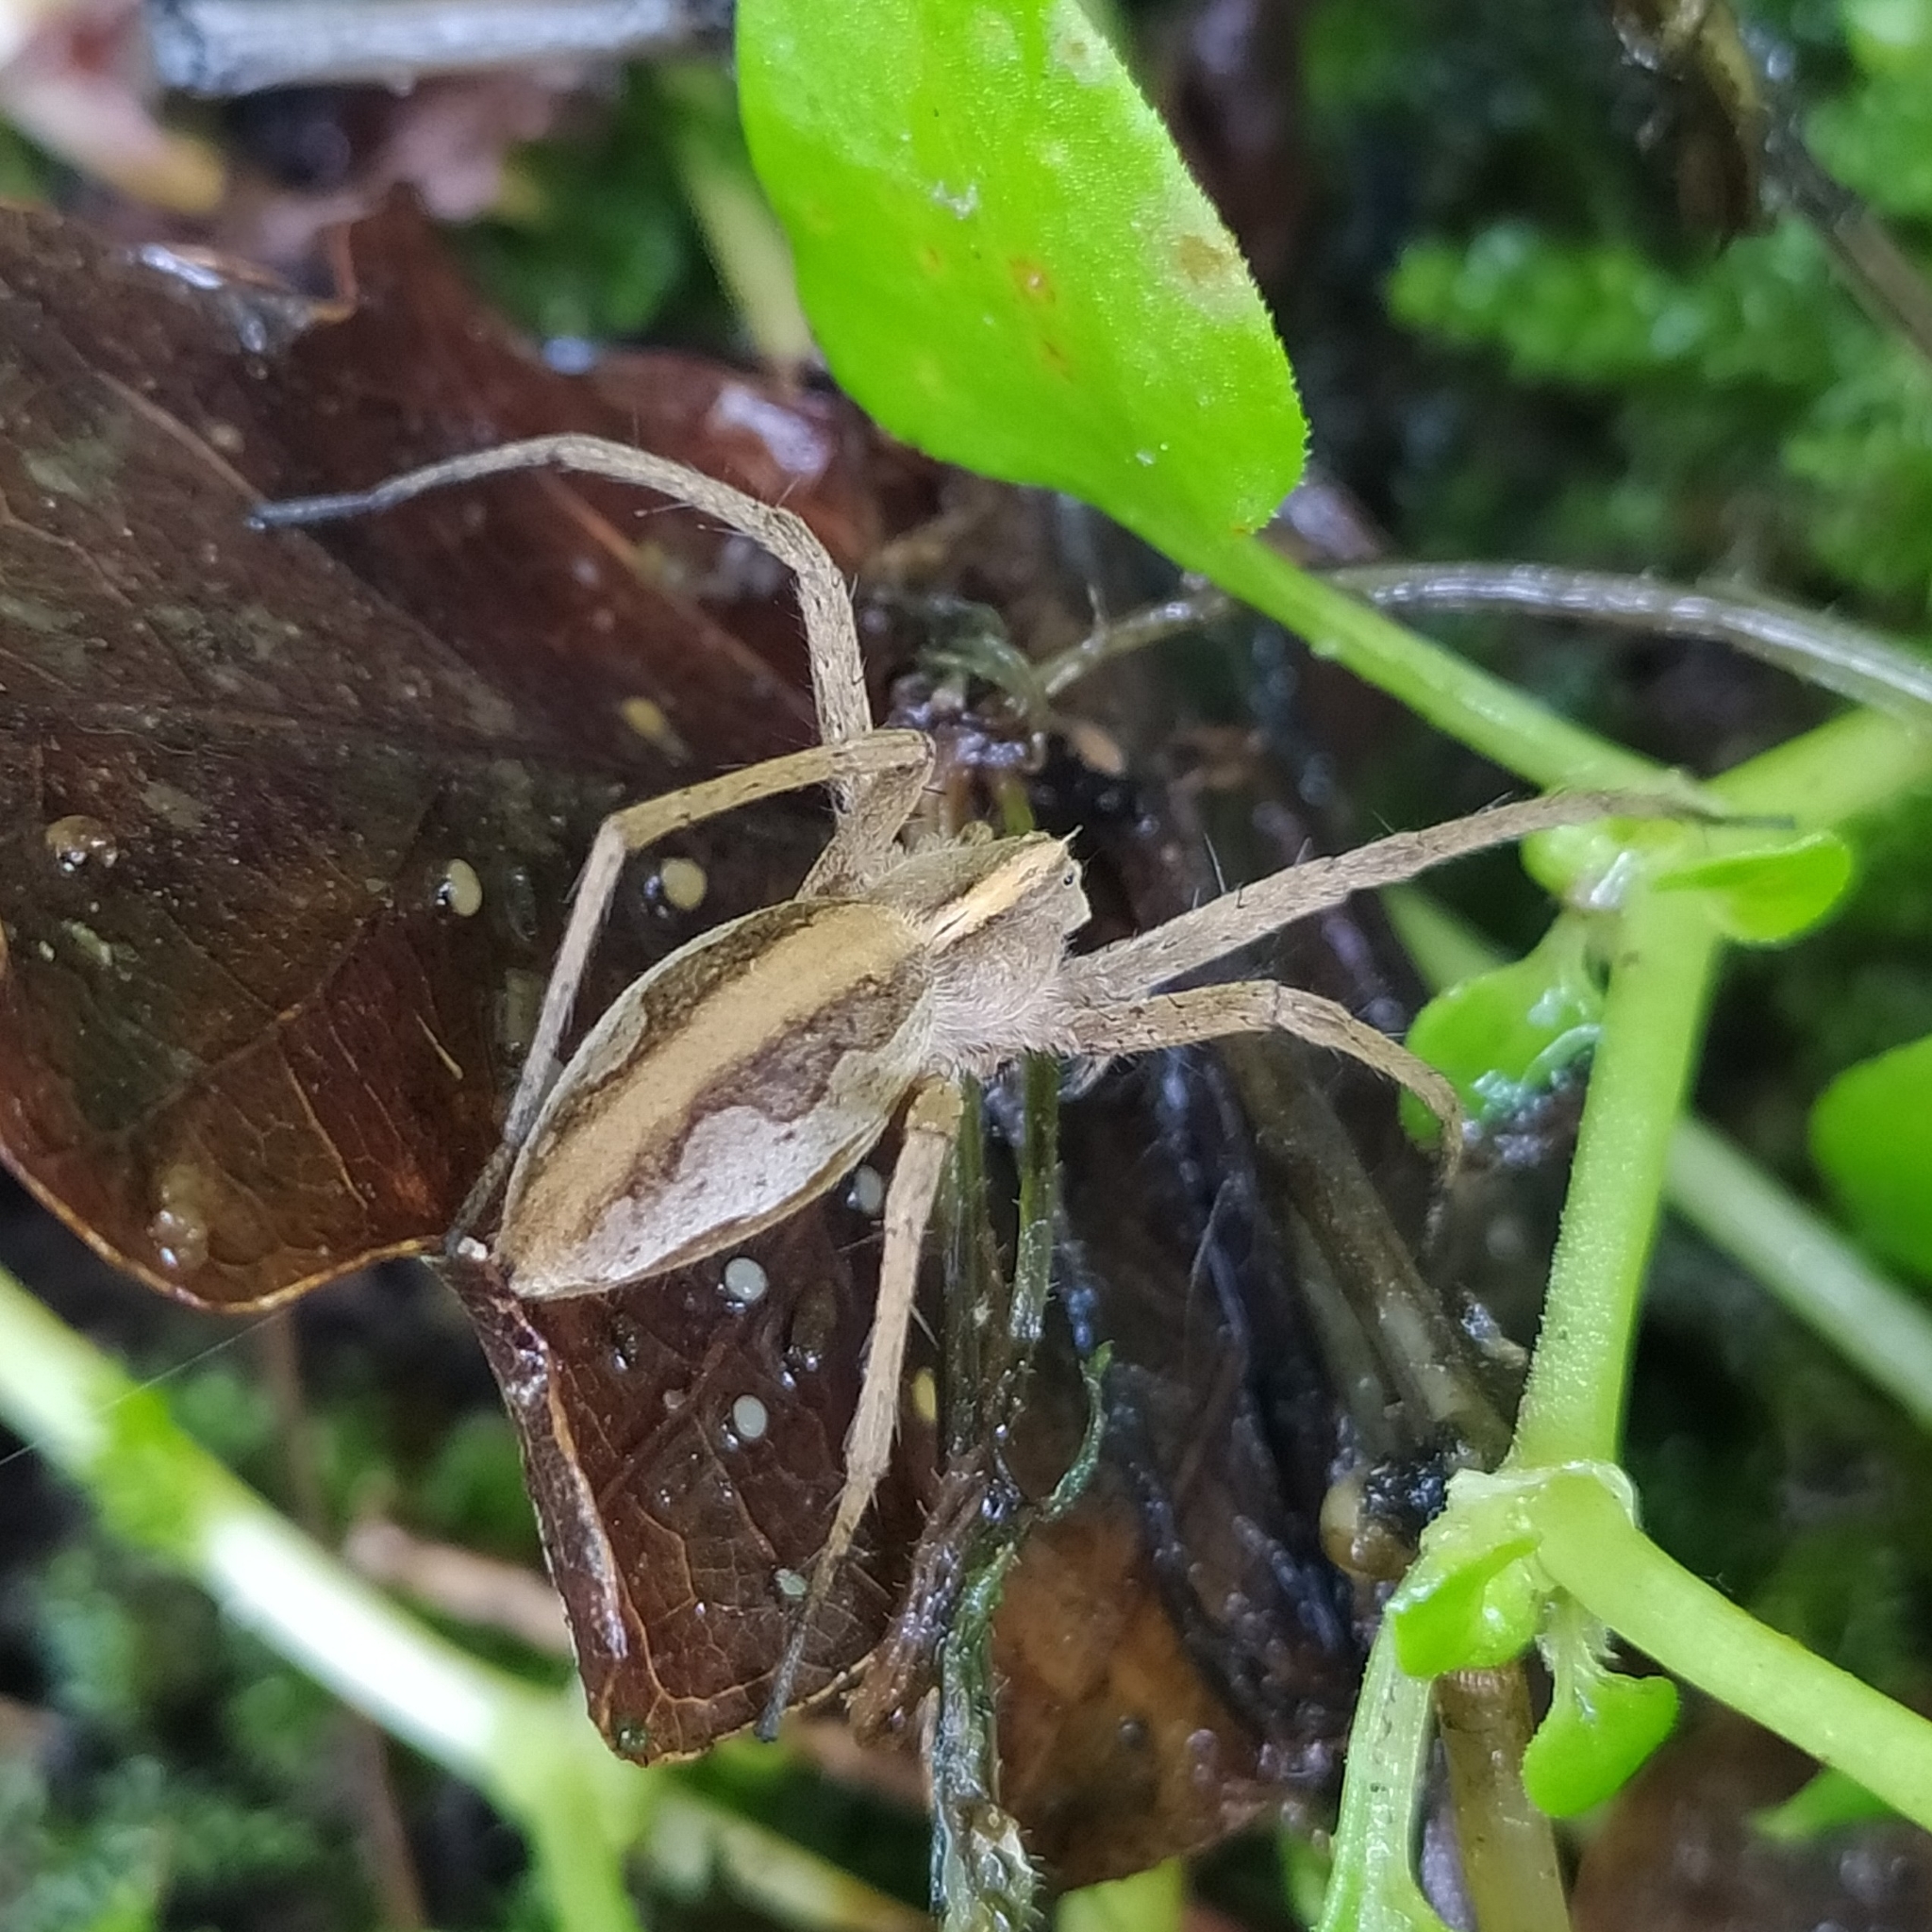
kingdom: Animalia
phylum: Arthropoda
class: Arachnida
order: Araneae
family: Pisauridae
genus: Pisaura
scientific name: Pisaura
